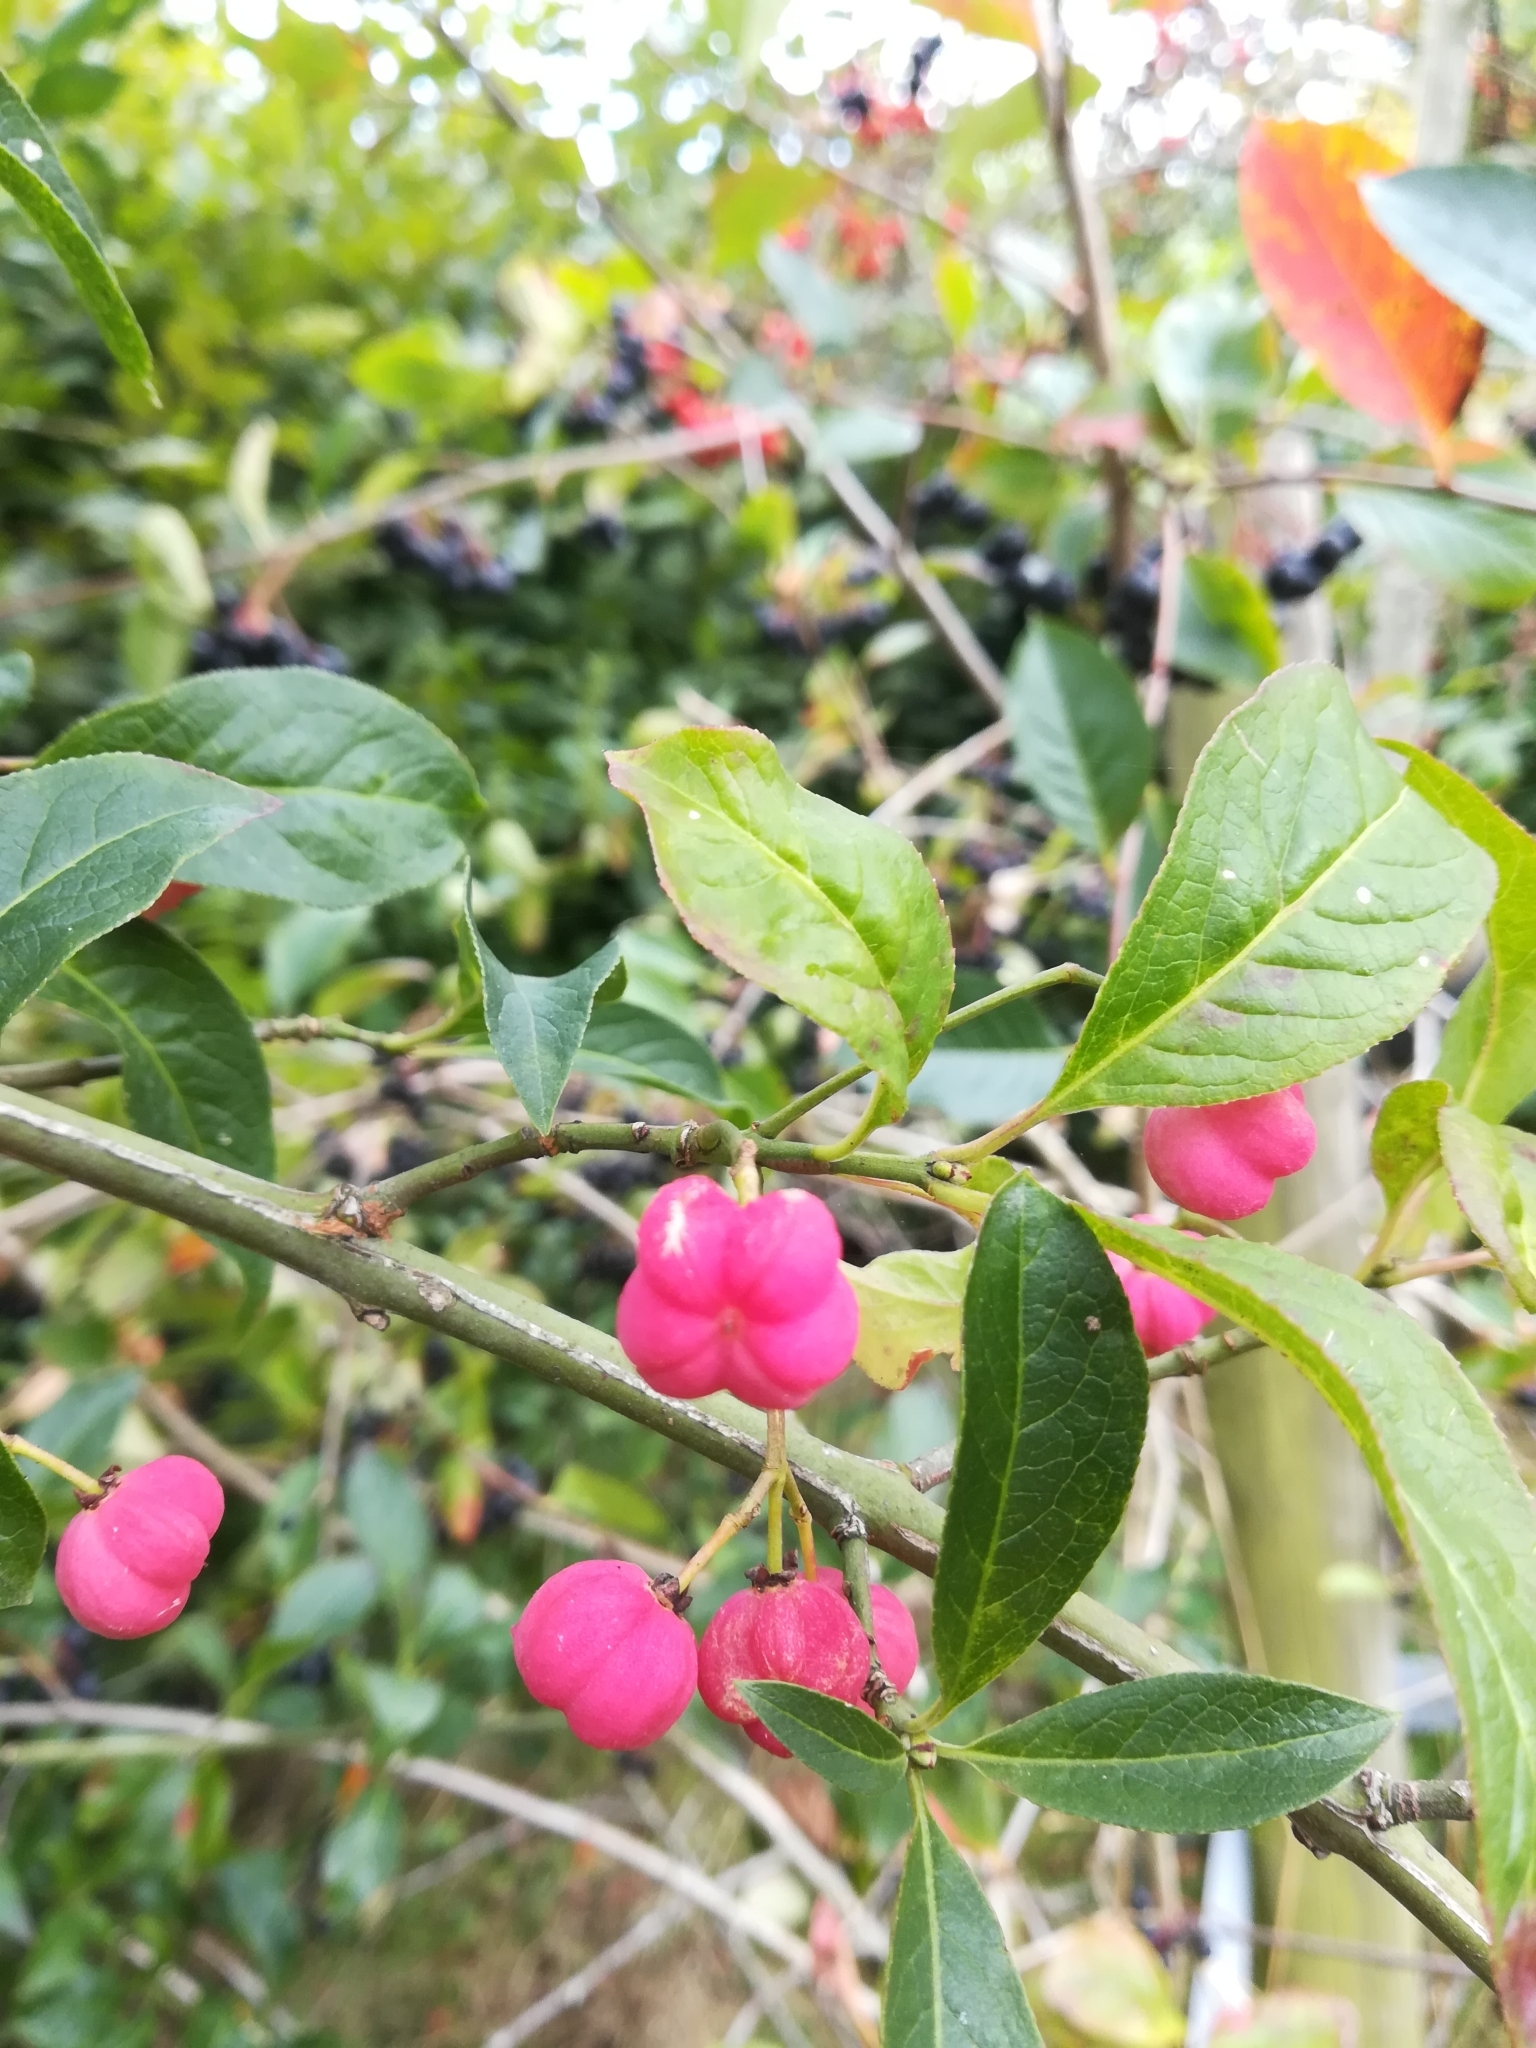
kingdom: Plantae
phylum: Tracheophyta
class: Magnoliopsida
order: Celastrales
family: Celastraceae
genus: Euonymus
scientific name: Euonymus europaeus
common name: Spindle
